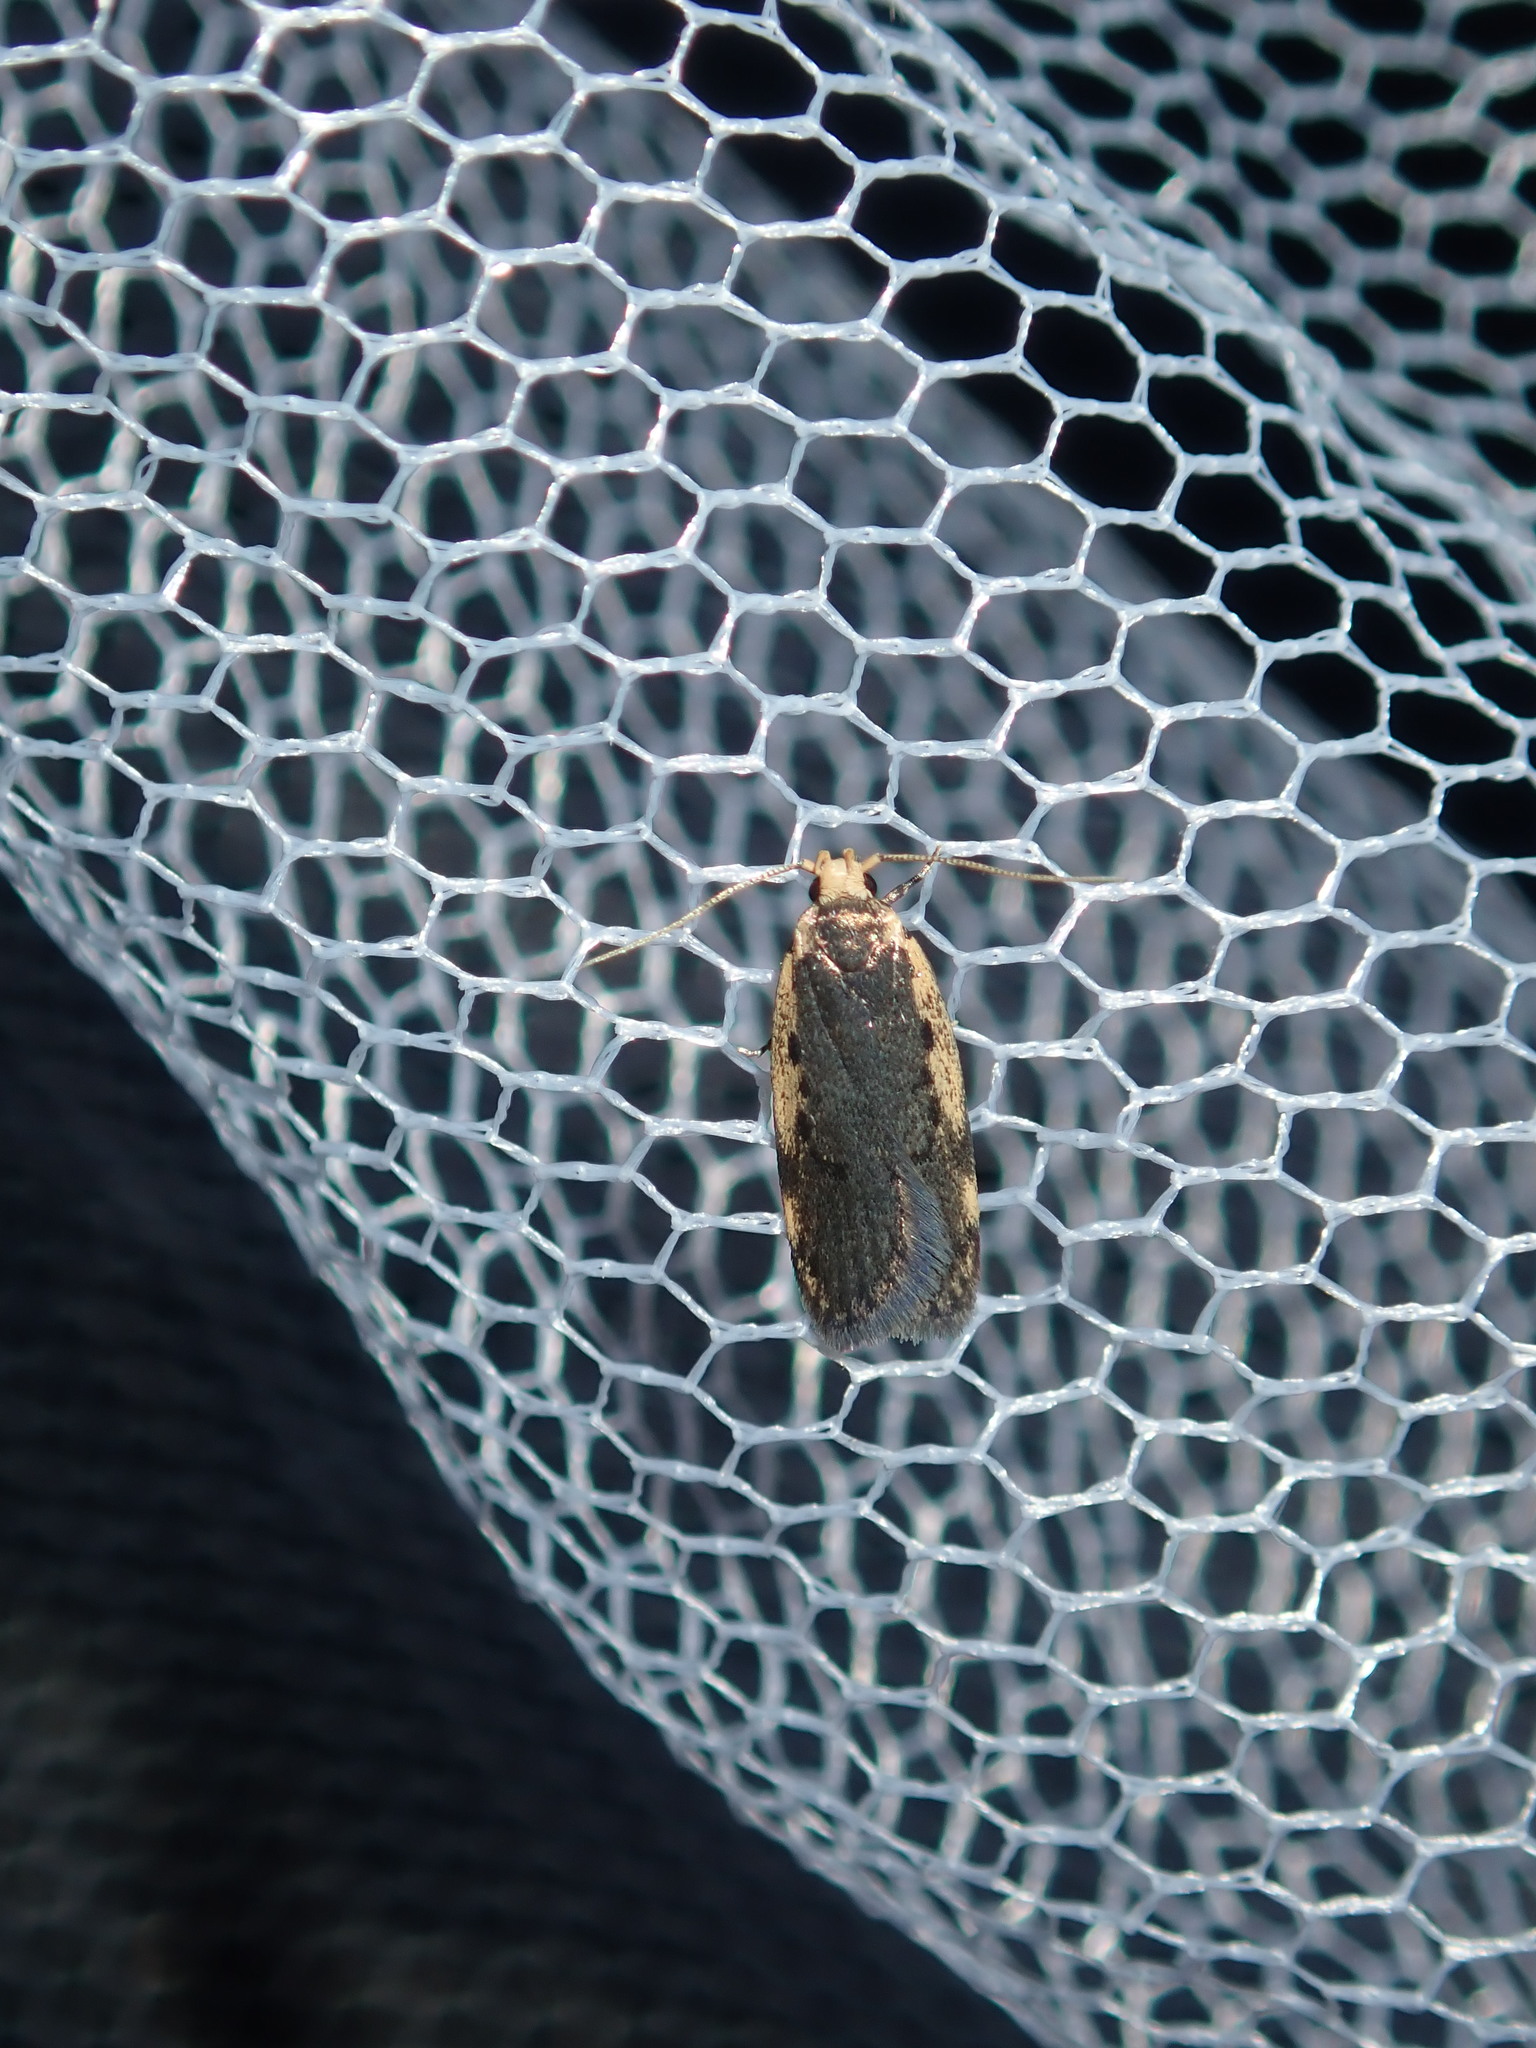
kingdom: Animalia
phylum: Arthropoda
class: Insecta
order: Lepidoptera
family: Oecophoridae
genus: Hoplostega
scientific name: Hoplostega ochroma
